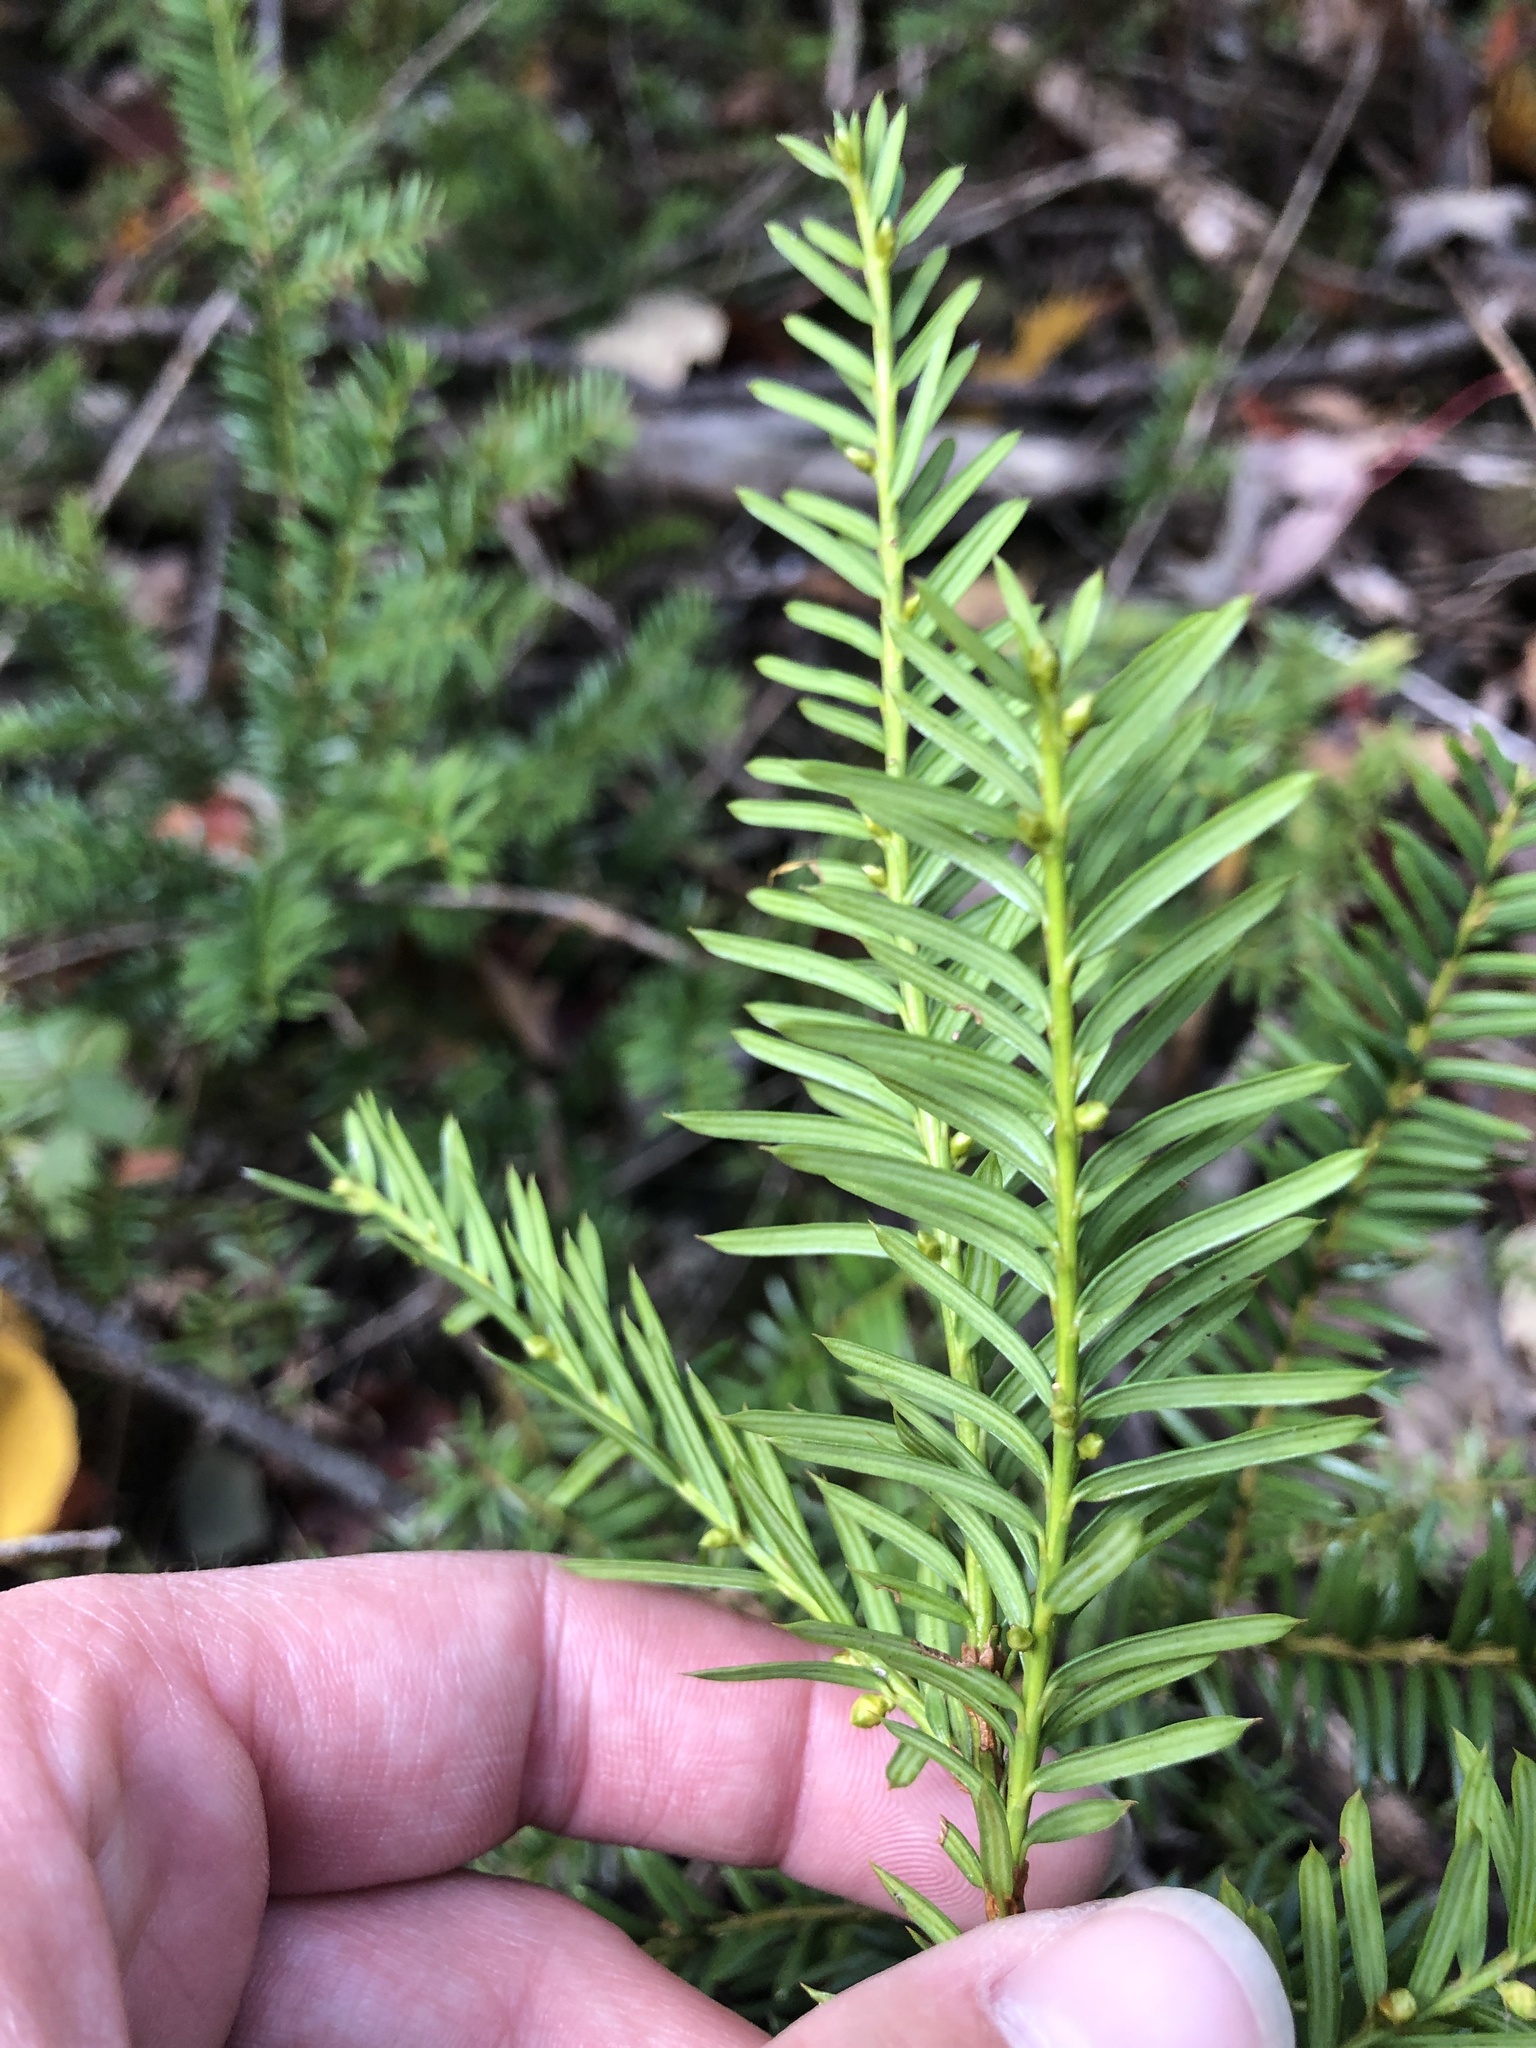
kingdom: Plantae
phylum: Tracheophyta
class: Pinopsida
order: Pinales
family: Taxaceae
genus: Taxus
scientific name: Taxus canadensis
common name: American yew
